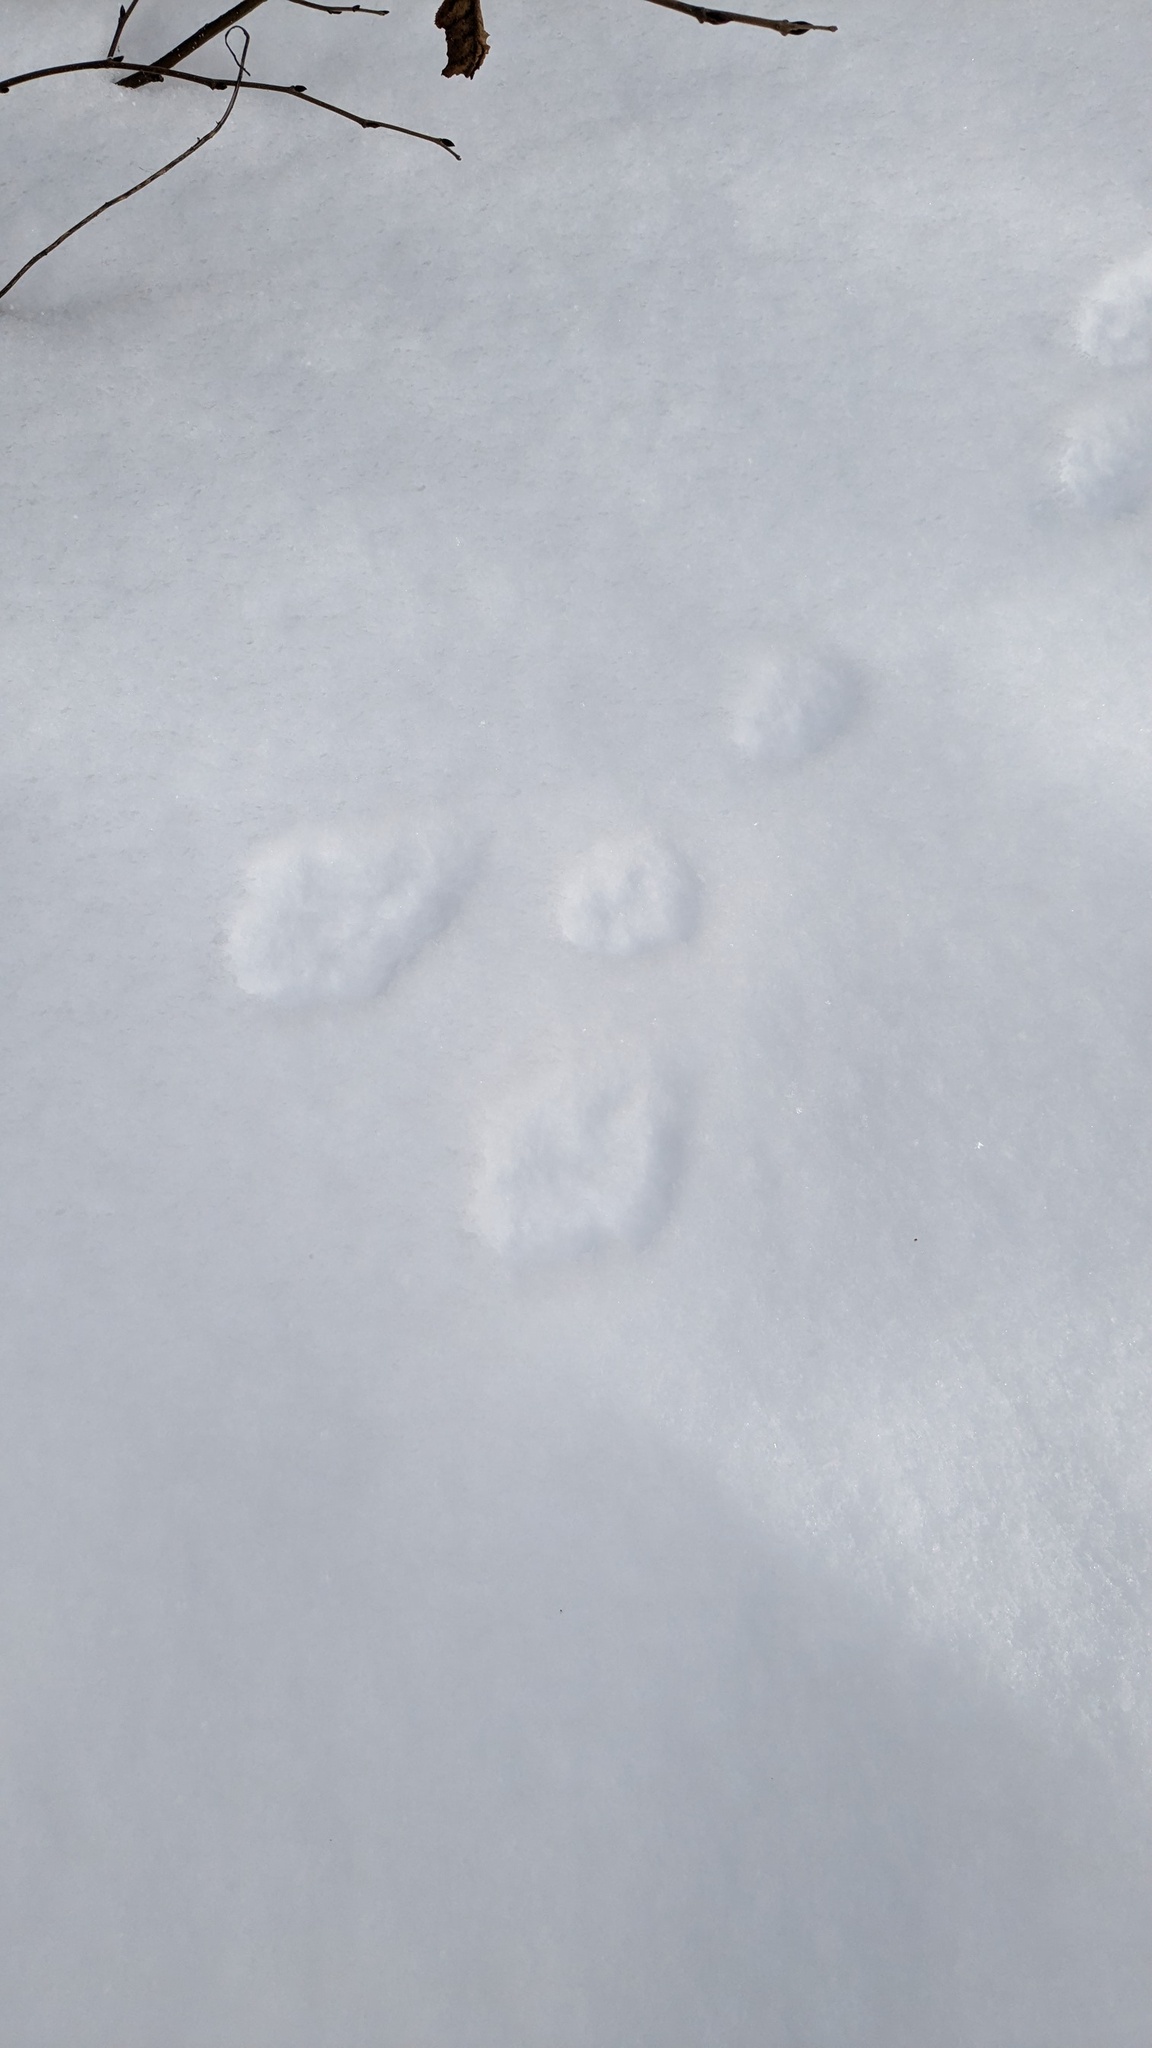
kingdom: Animalia
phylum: Chordata
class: Mammalia
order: Lagomorpha
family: Leporidae
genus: Lepus
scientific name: Lepus americanus
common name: Snowshoe hare
